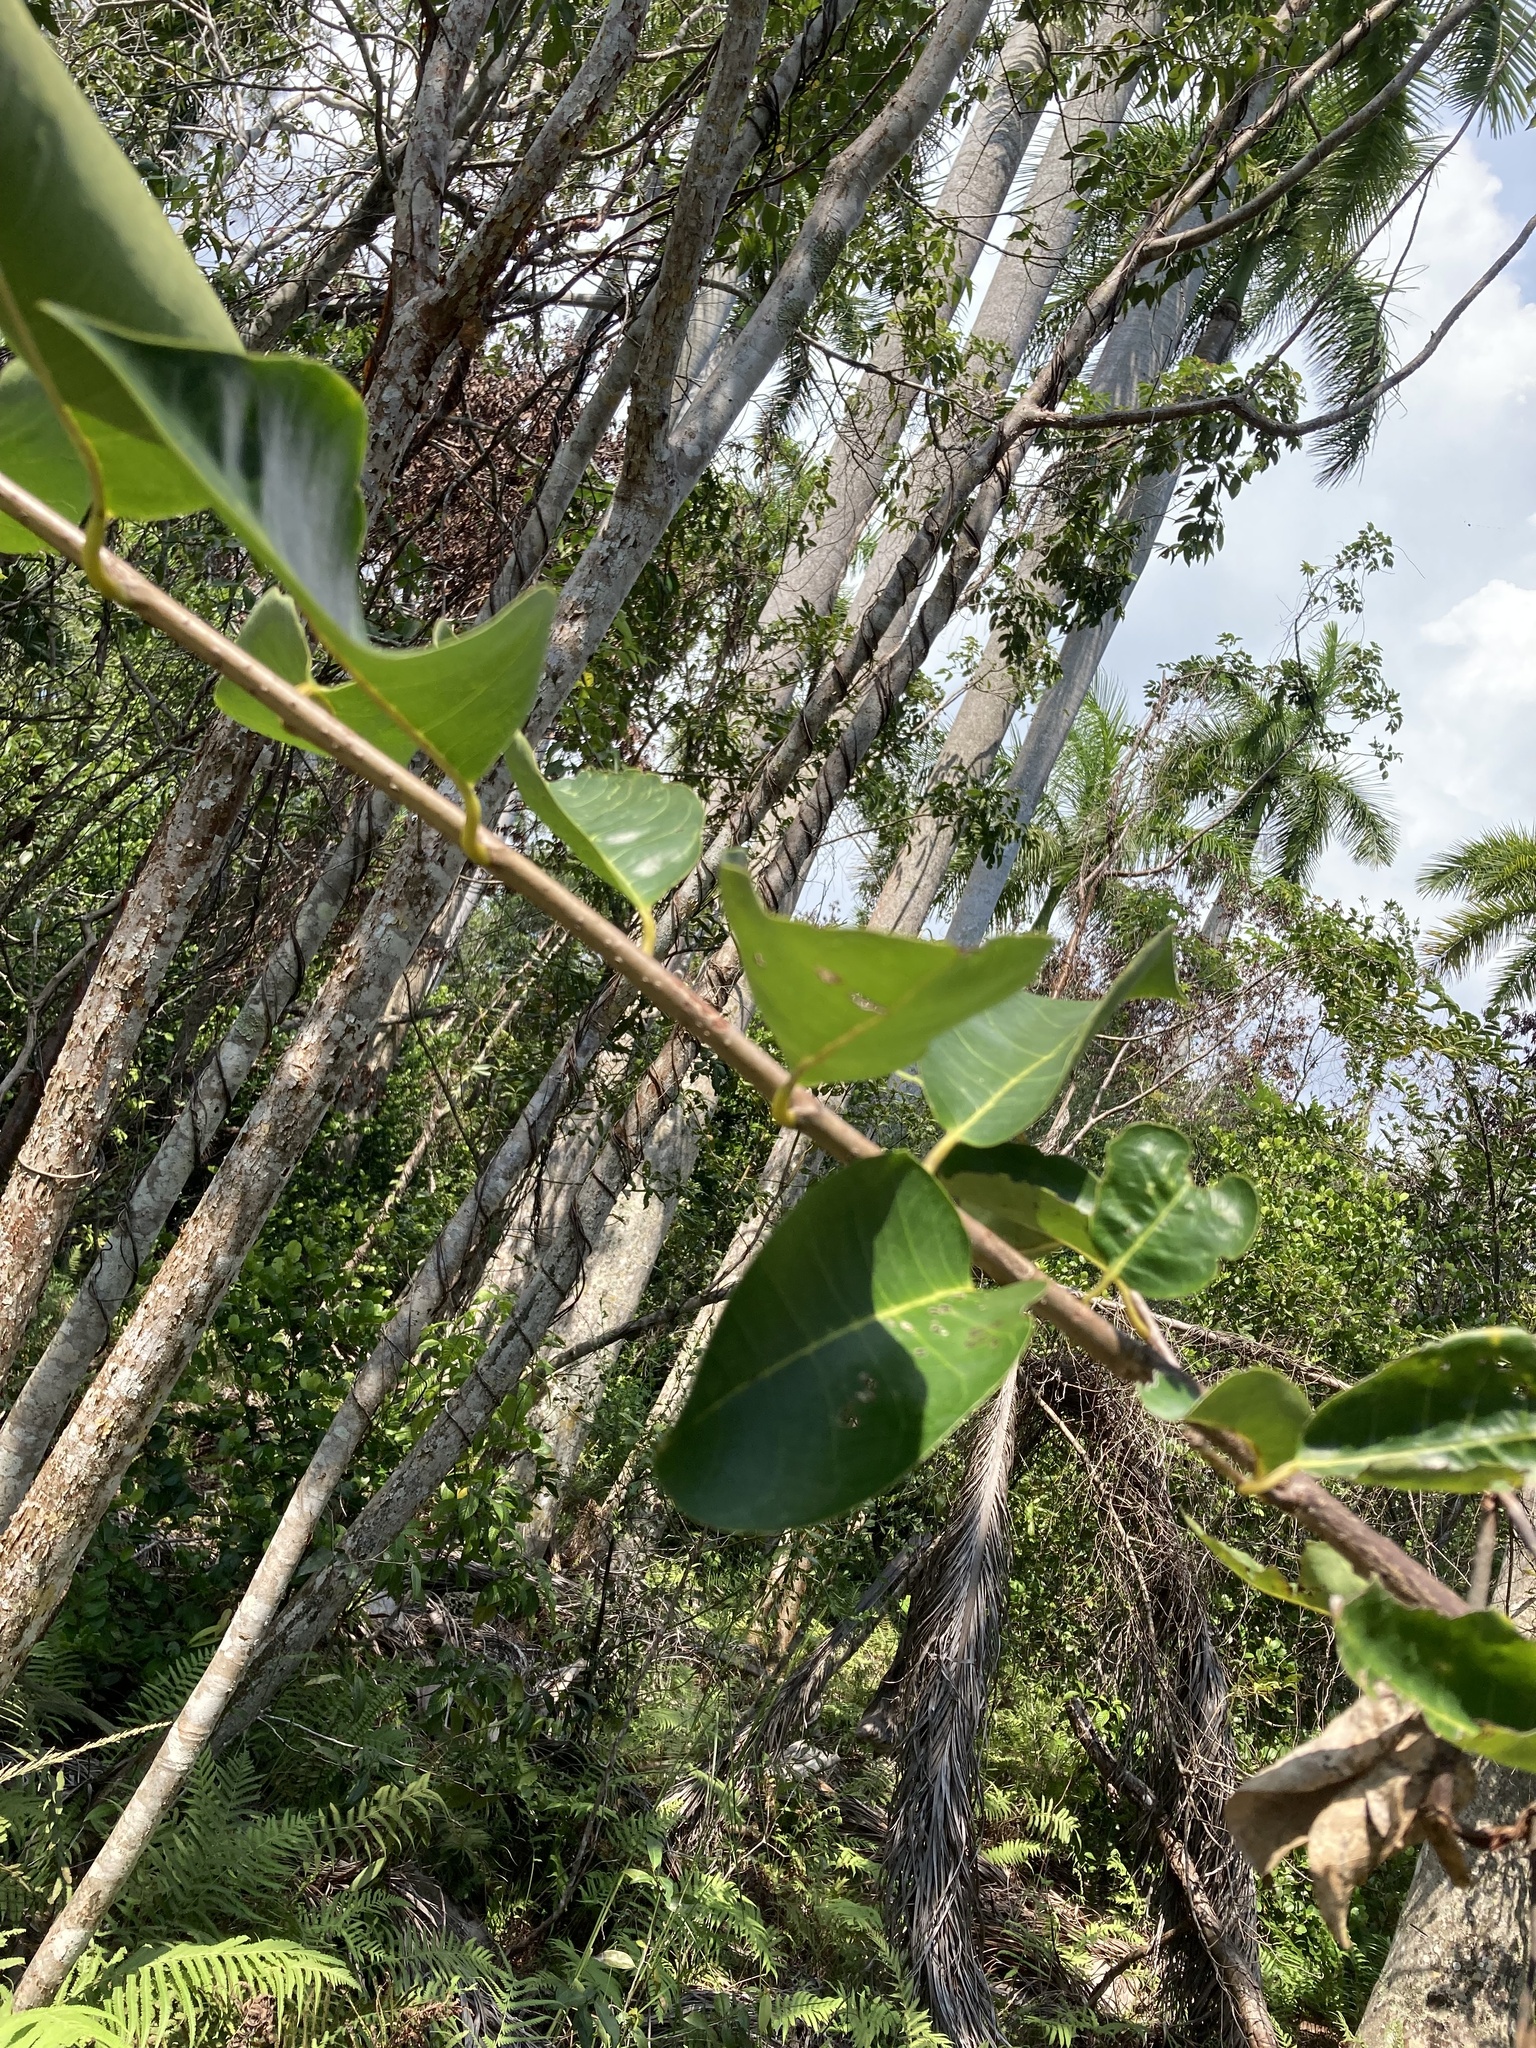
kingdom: Plantae
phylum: Tracheophyta
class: Magnoliopsida
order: Magnoliales
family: Annonaceae
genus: Annona
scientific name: Annona glabra
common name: Monkey apple
